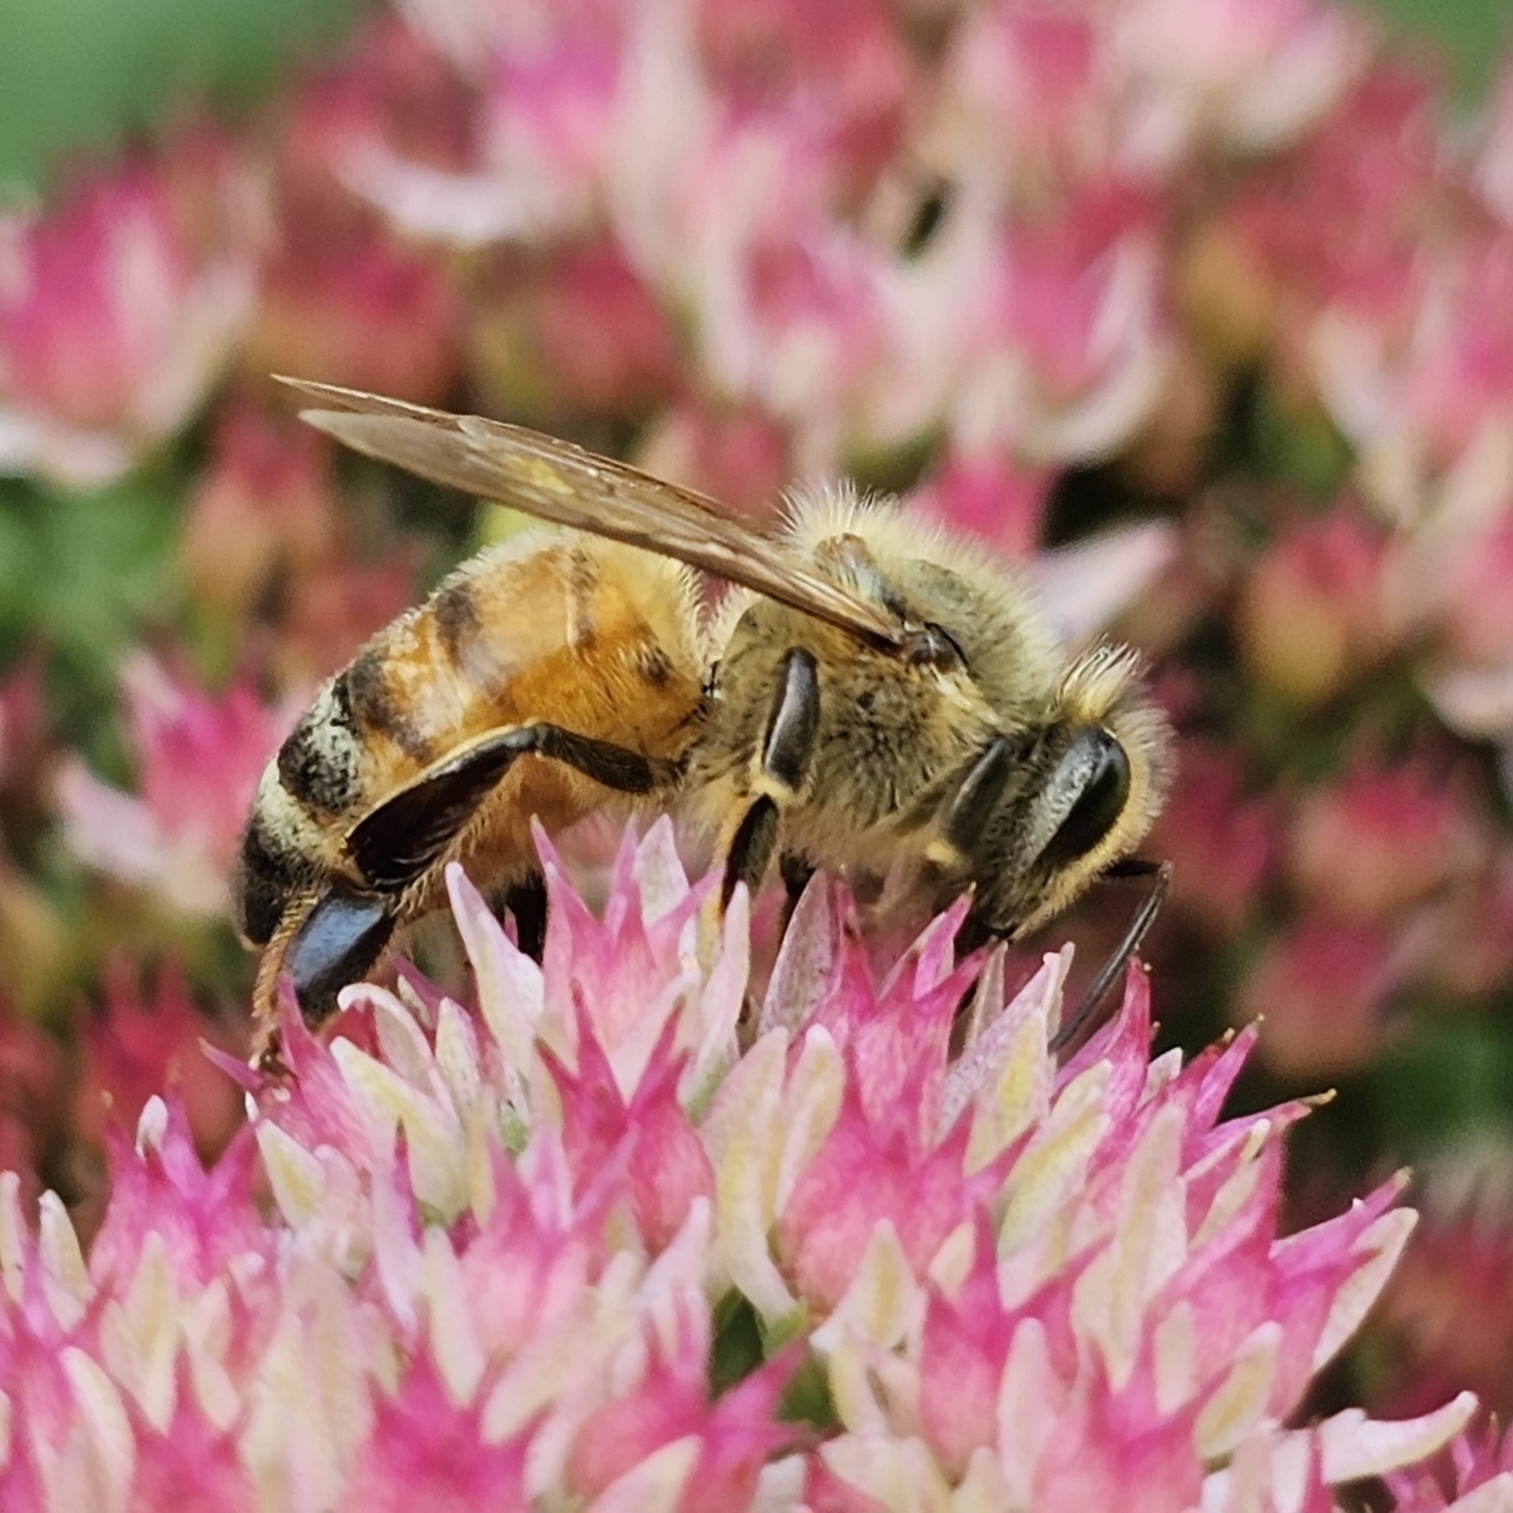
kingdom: Animalia
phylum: Arthropoda
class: Insecta
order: Hymenoptera
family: Apidae
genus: Apis
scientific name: Apis mellifera
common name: Honey bee
